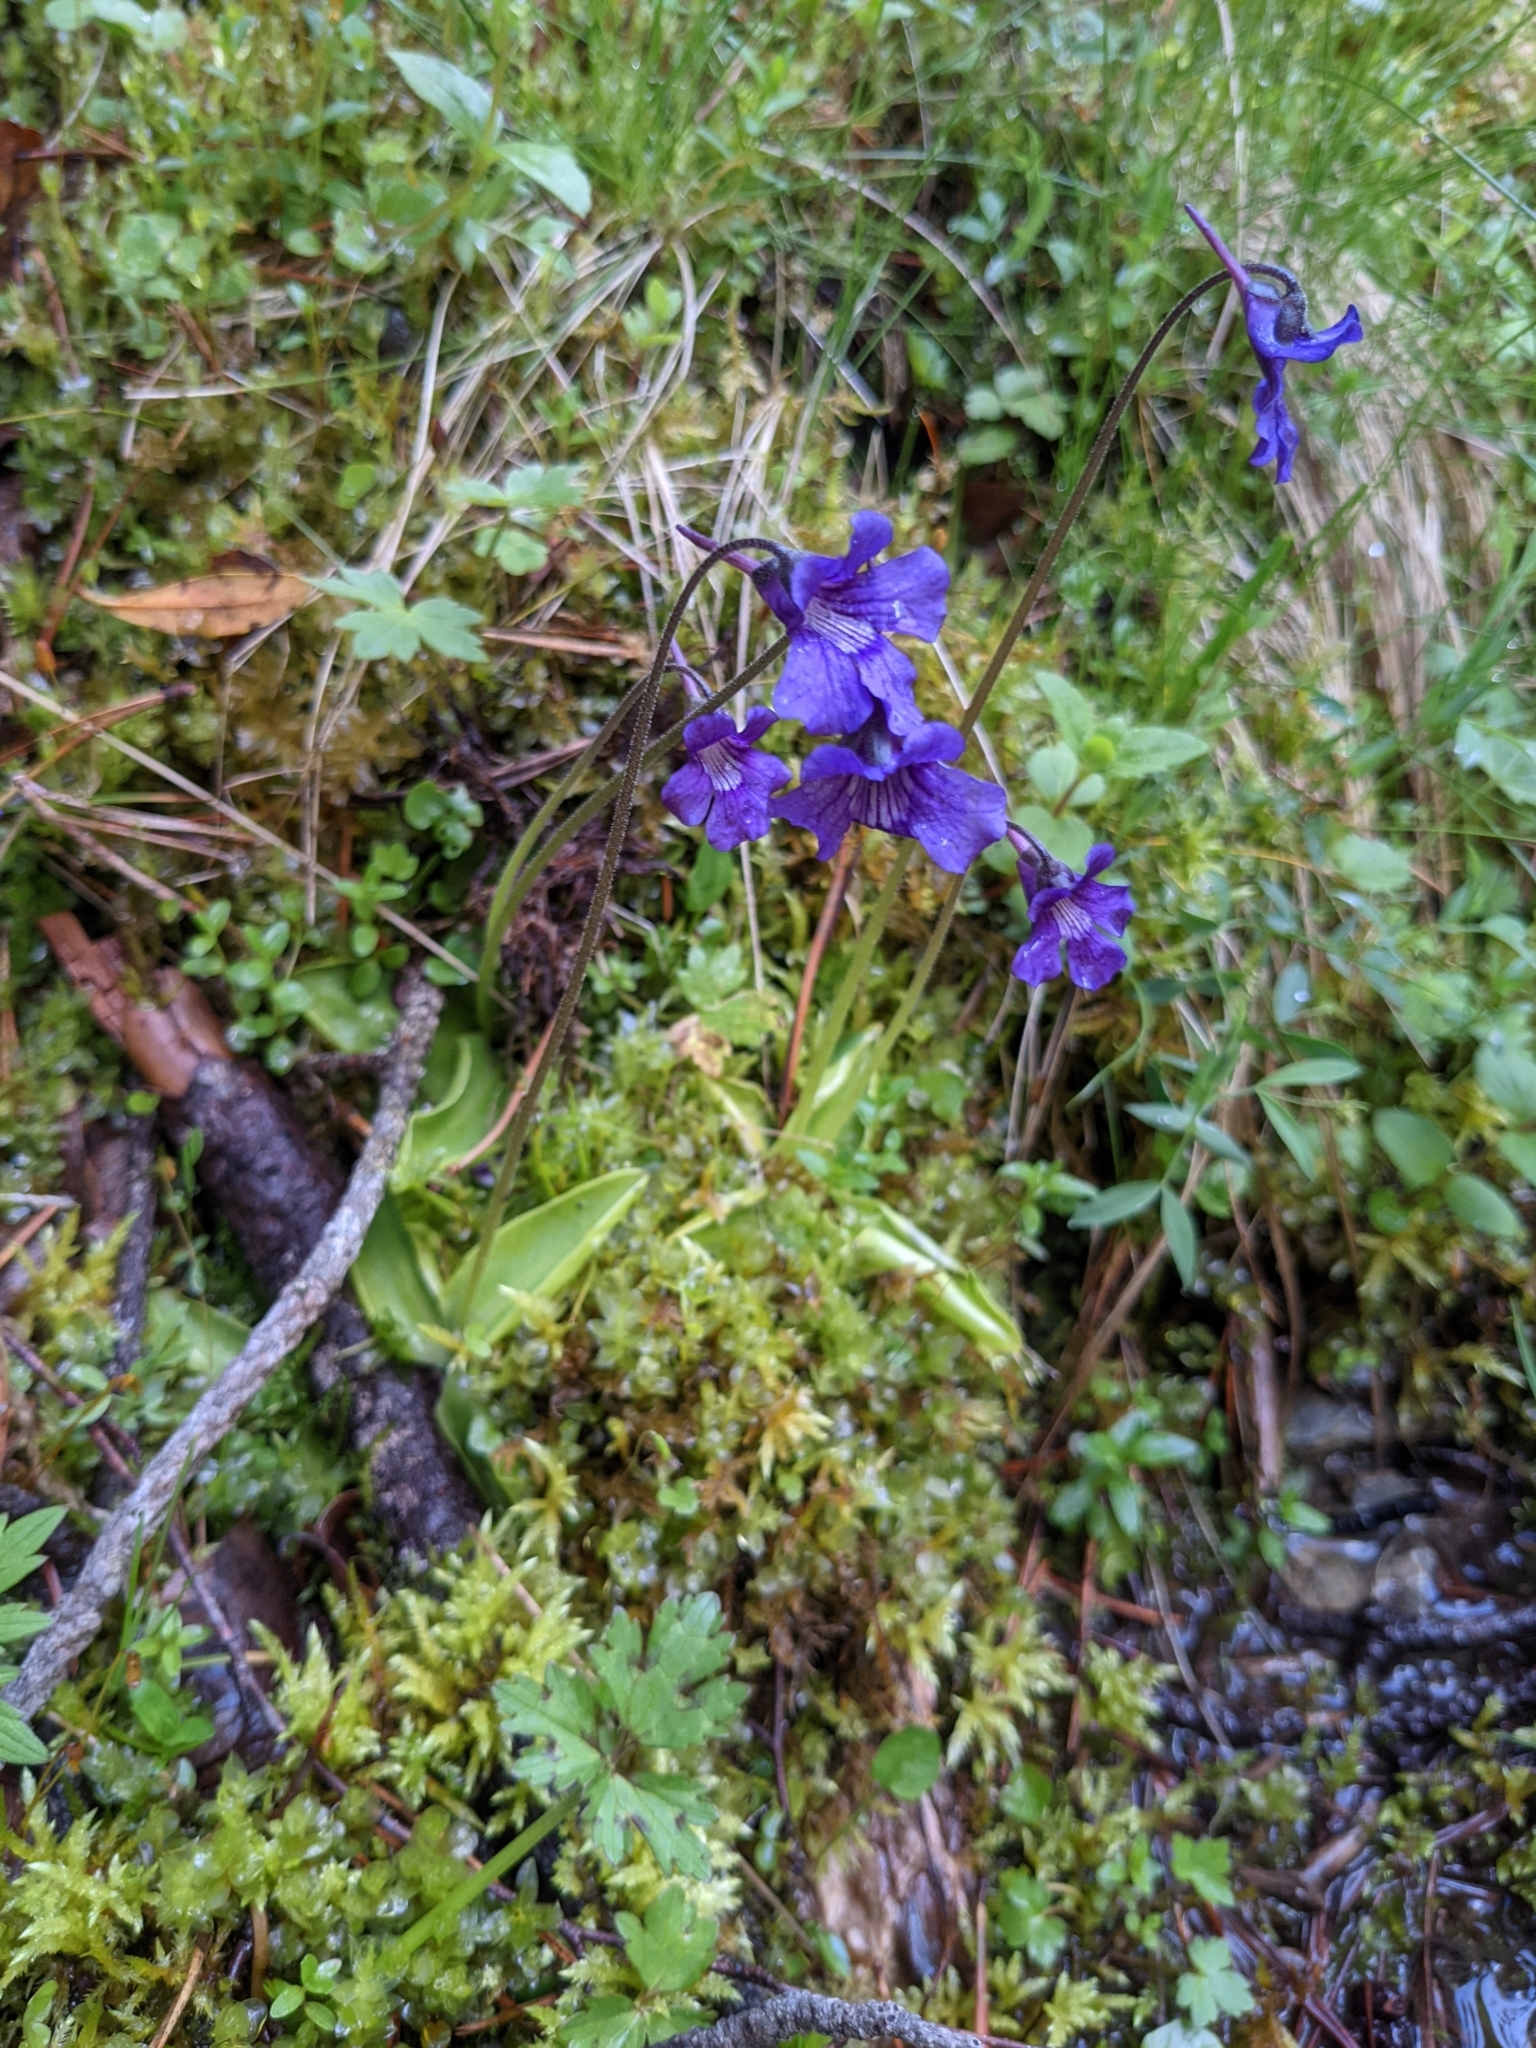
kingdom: Plantae
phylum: Tracheophyta
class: Magnoliopsida
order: Lamiales
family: Lentibulariaceae
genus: Pinguicula
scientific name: Pinguicula grandiflora
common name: Large-flowered butterwort
